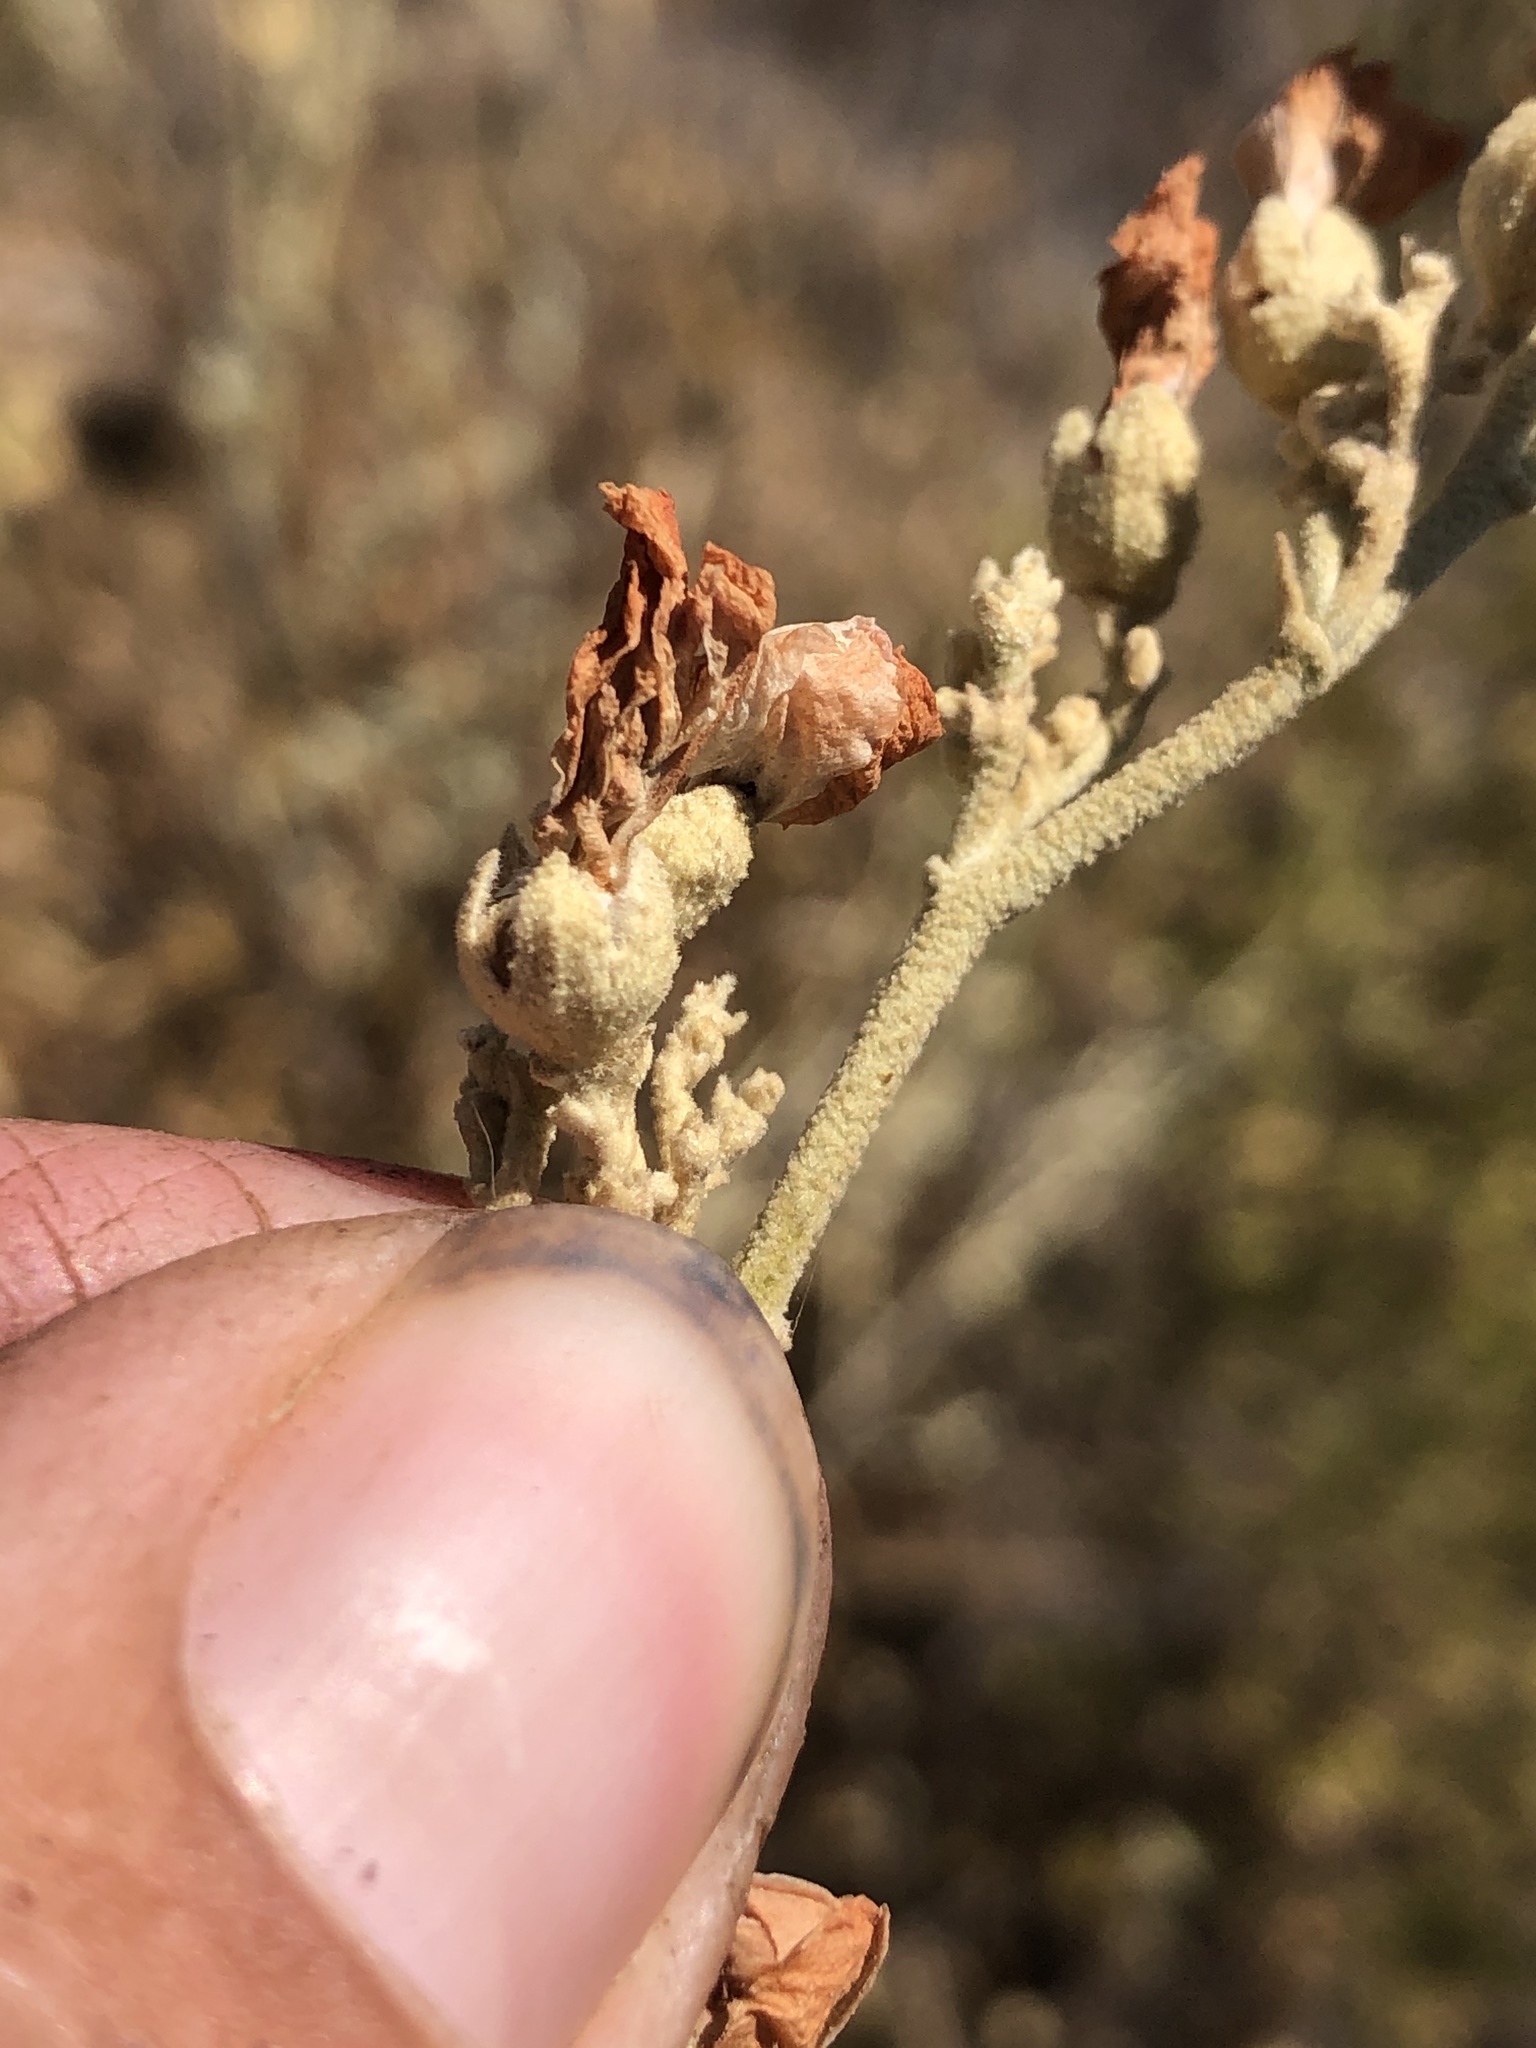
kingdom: Plantae
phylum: Tracheophyta
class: Magnoliopsida
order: Malvales
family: Malvaceae
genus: Malacothamnus
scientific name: Malacothamnus fasciculatus
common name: Sant cruz island bush-mallow
